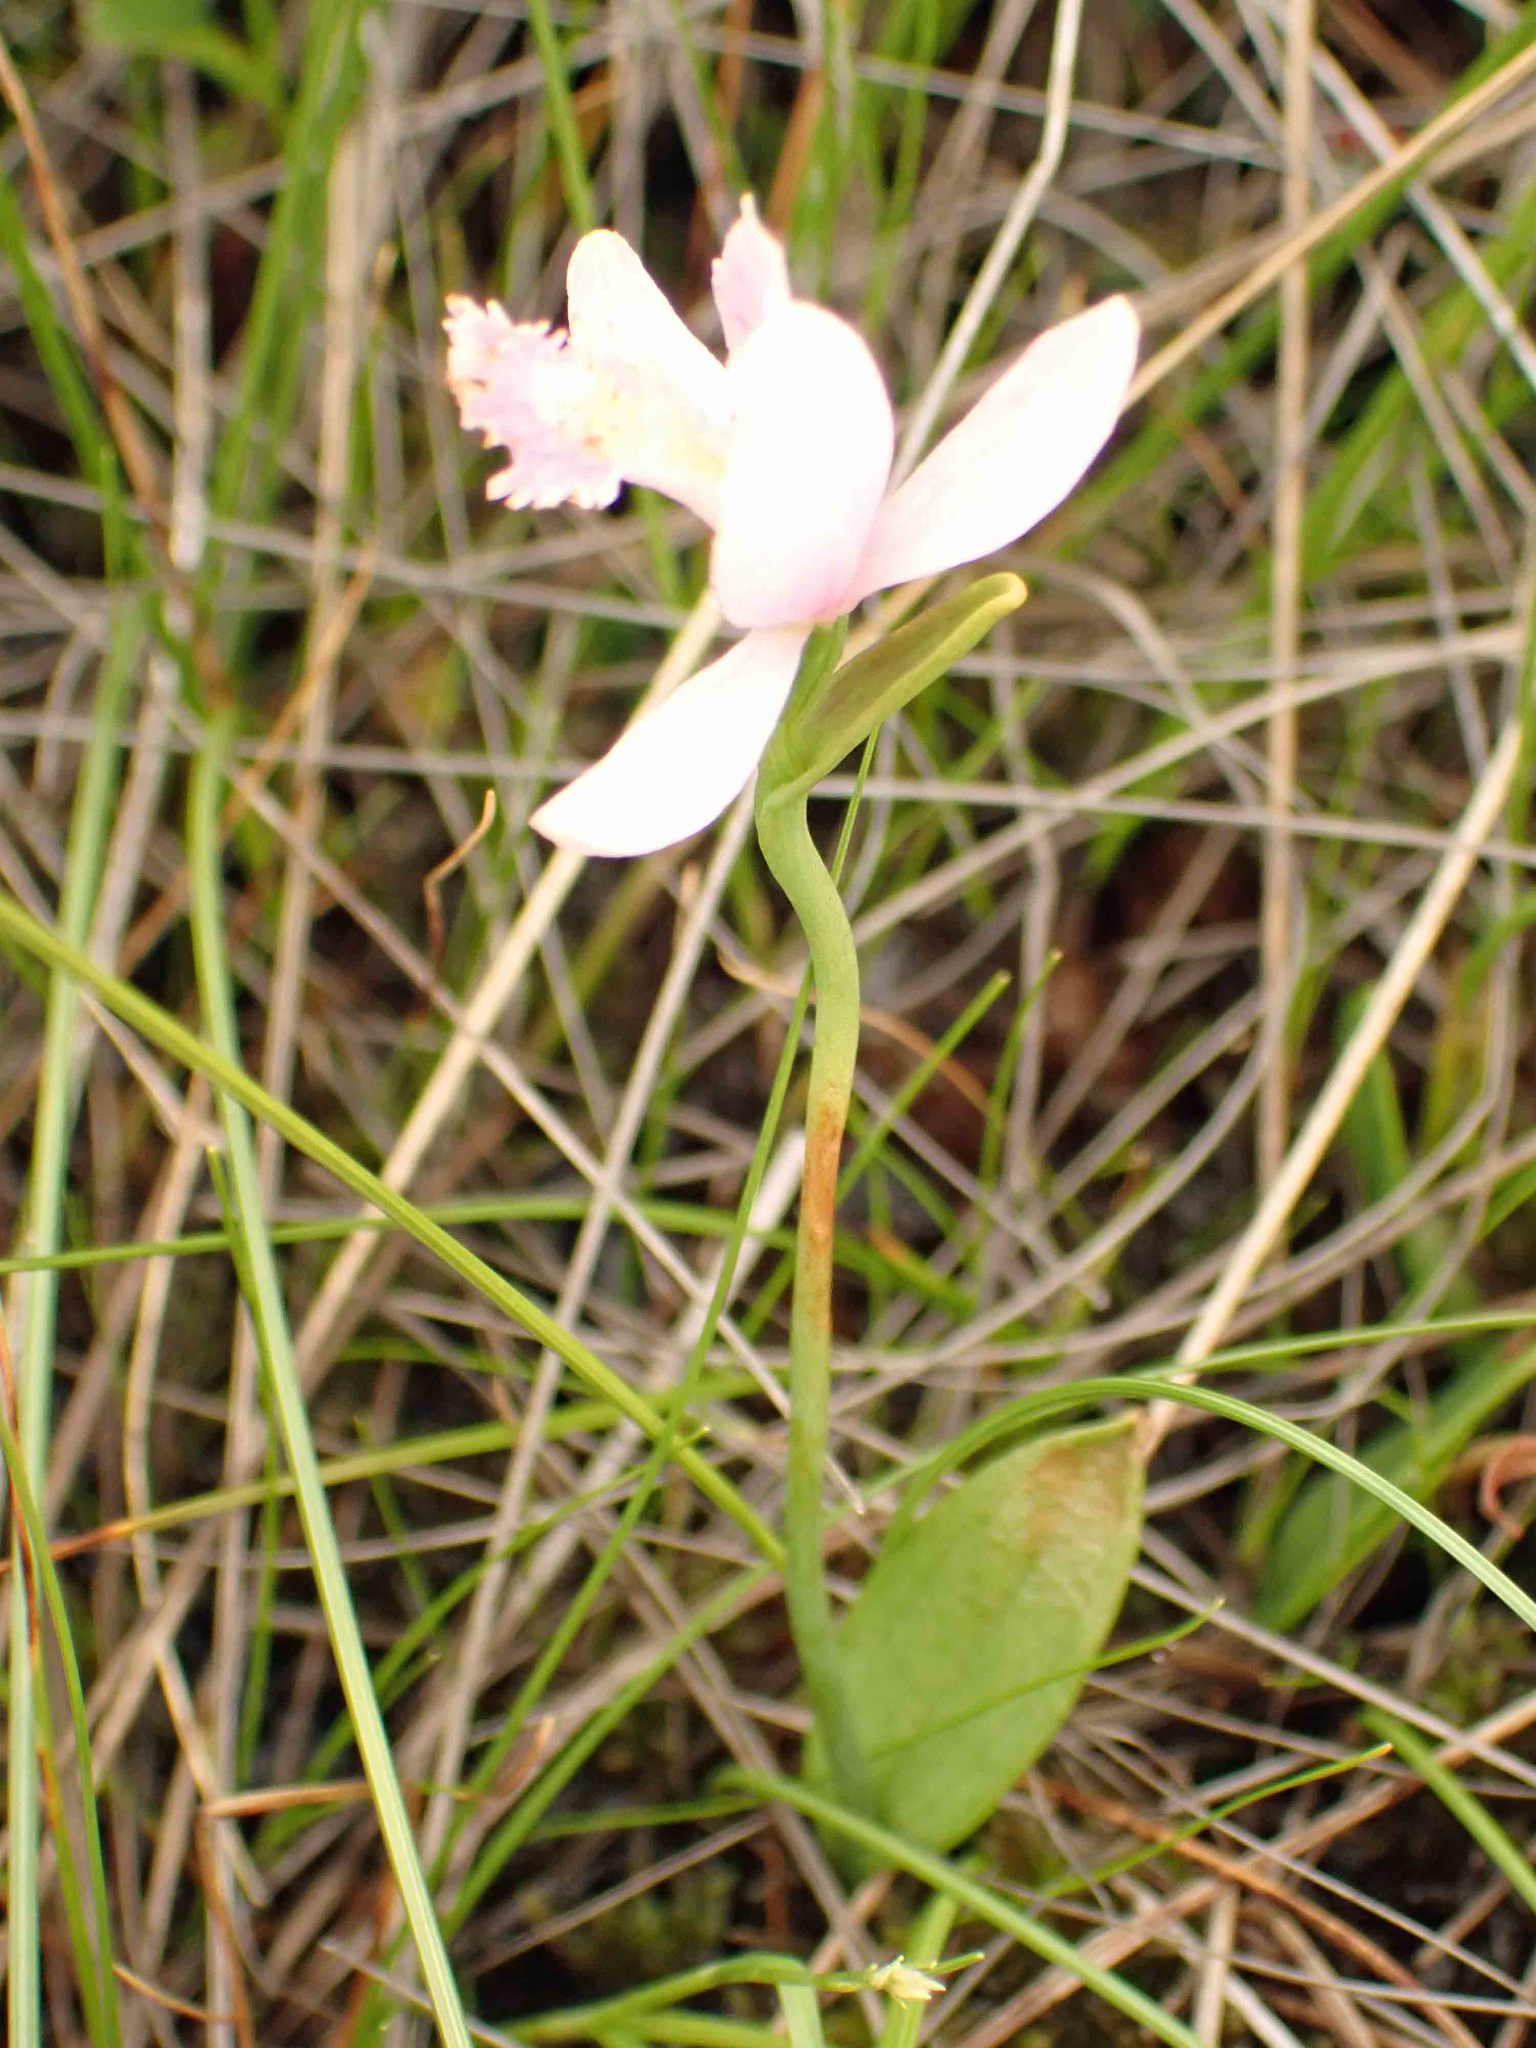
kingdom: Plantae
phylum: Tracheophyta
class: Liliopsida
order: Asparagales
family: Orchidaceae
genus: Pogonia
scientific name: Pogonia ophioglossoides
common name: Rose pogonia
